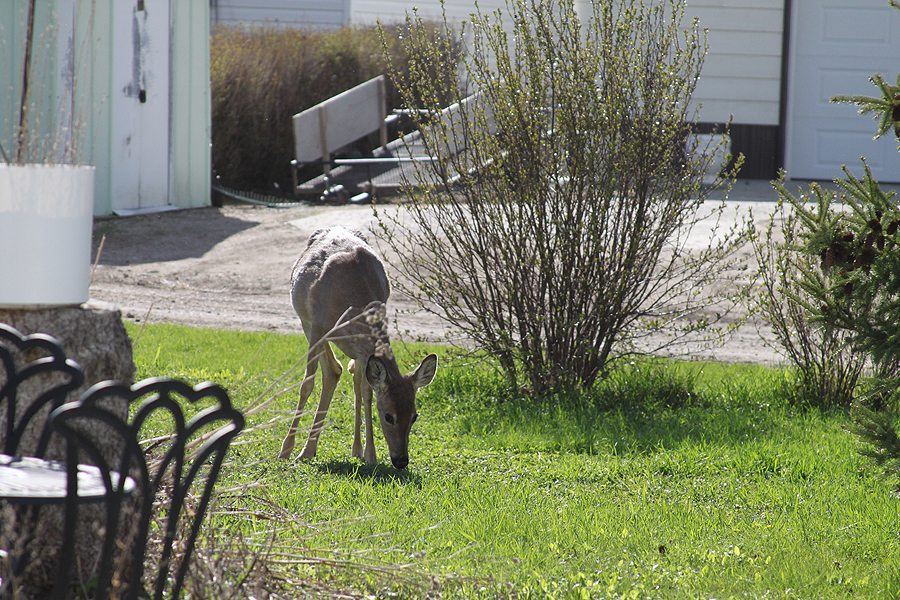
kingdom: Animalia
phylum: Chordata
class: Mammalia
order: Artiodactyla
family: Cervidae
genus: Odocoileus
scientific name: Odocoileus virginianus
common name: White-tailed deer
